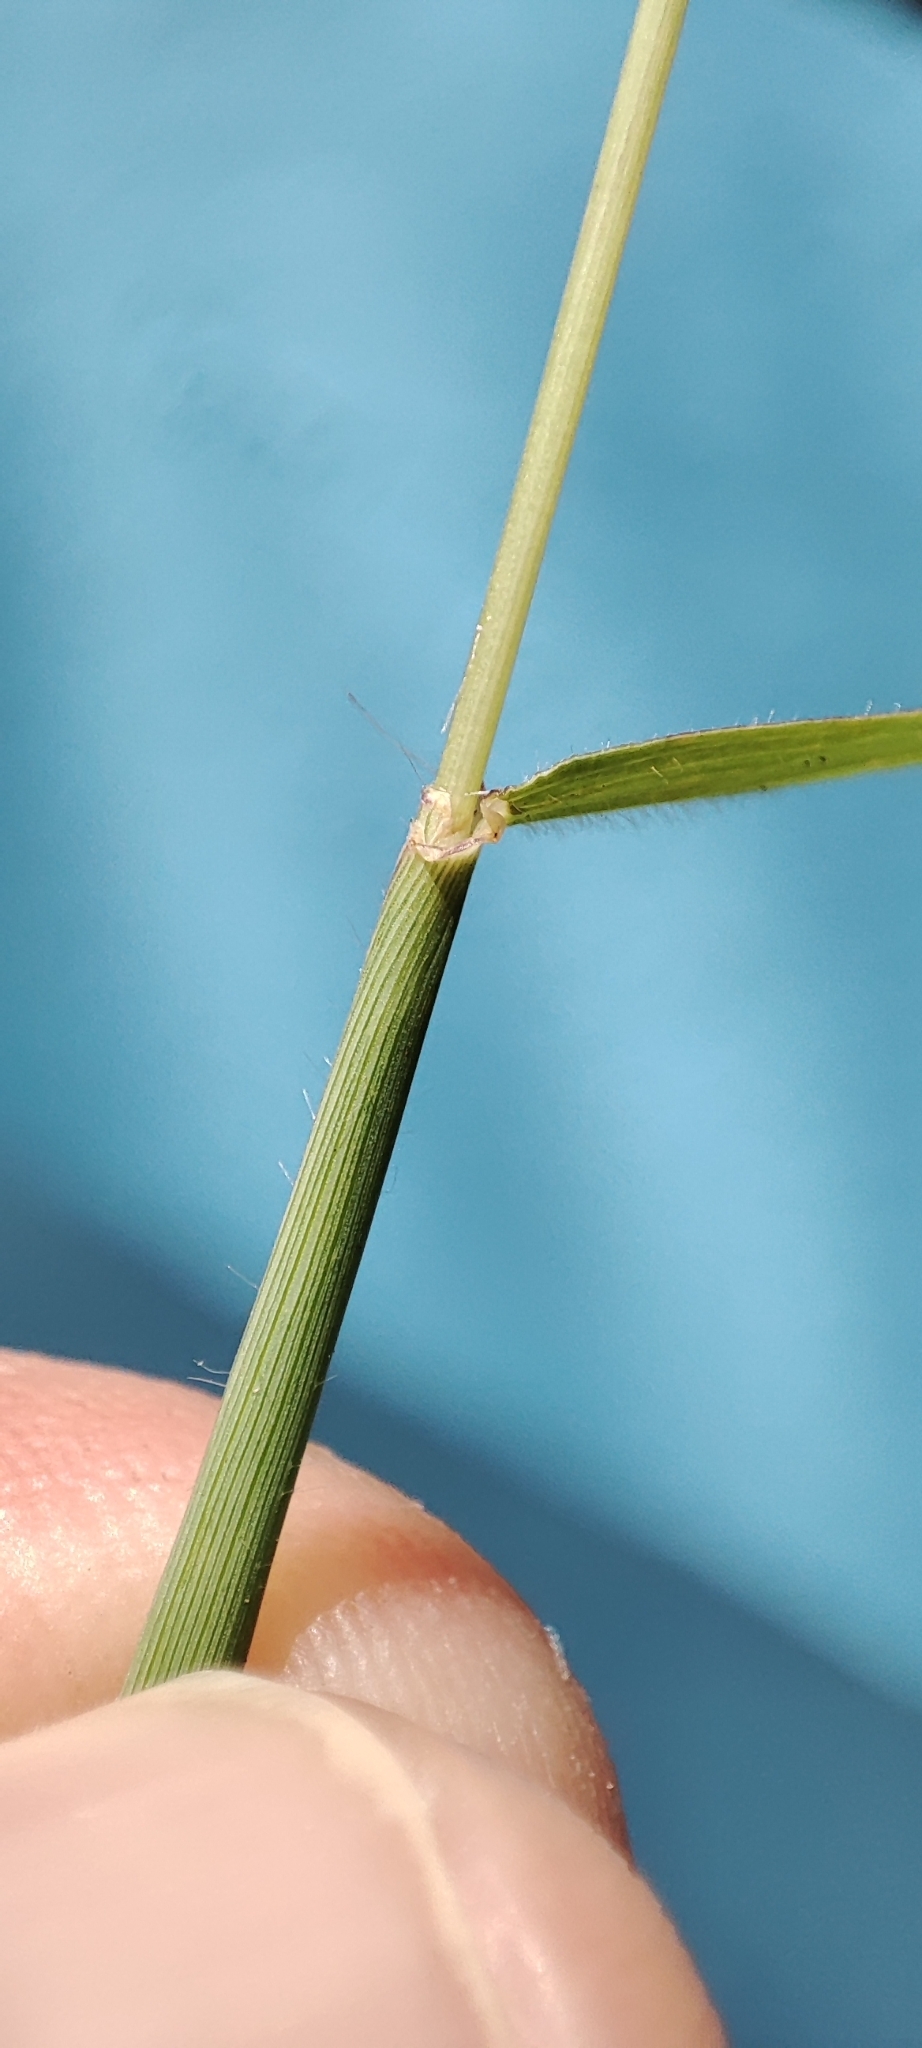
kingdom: Plantae
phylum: Tracheophyta
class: Liliopsida
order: Poales
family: Poaceae
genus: Anthephora
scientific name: Anthephora hermaphrodita
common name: Oldfield grass
